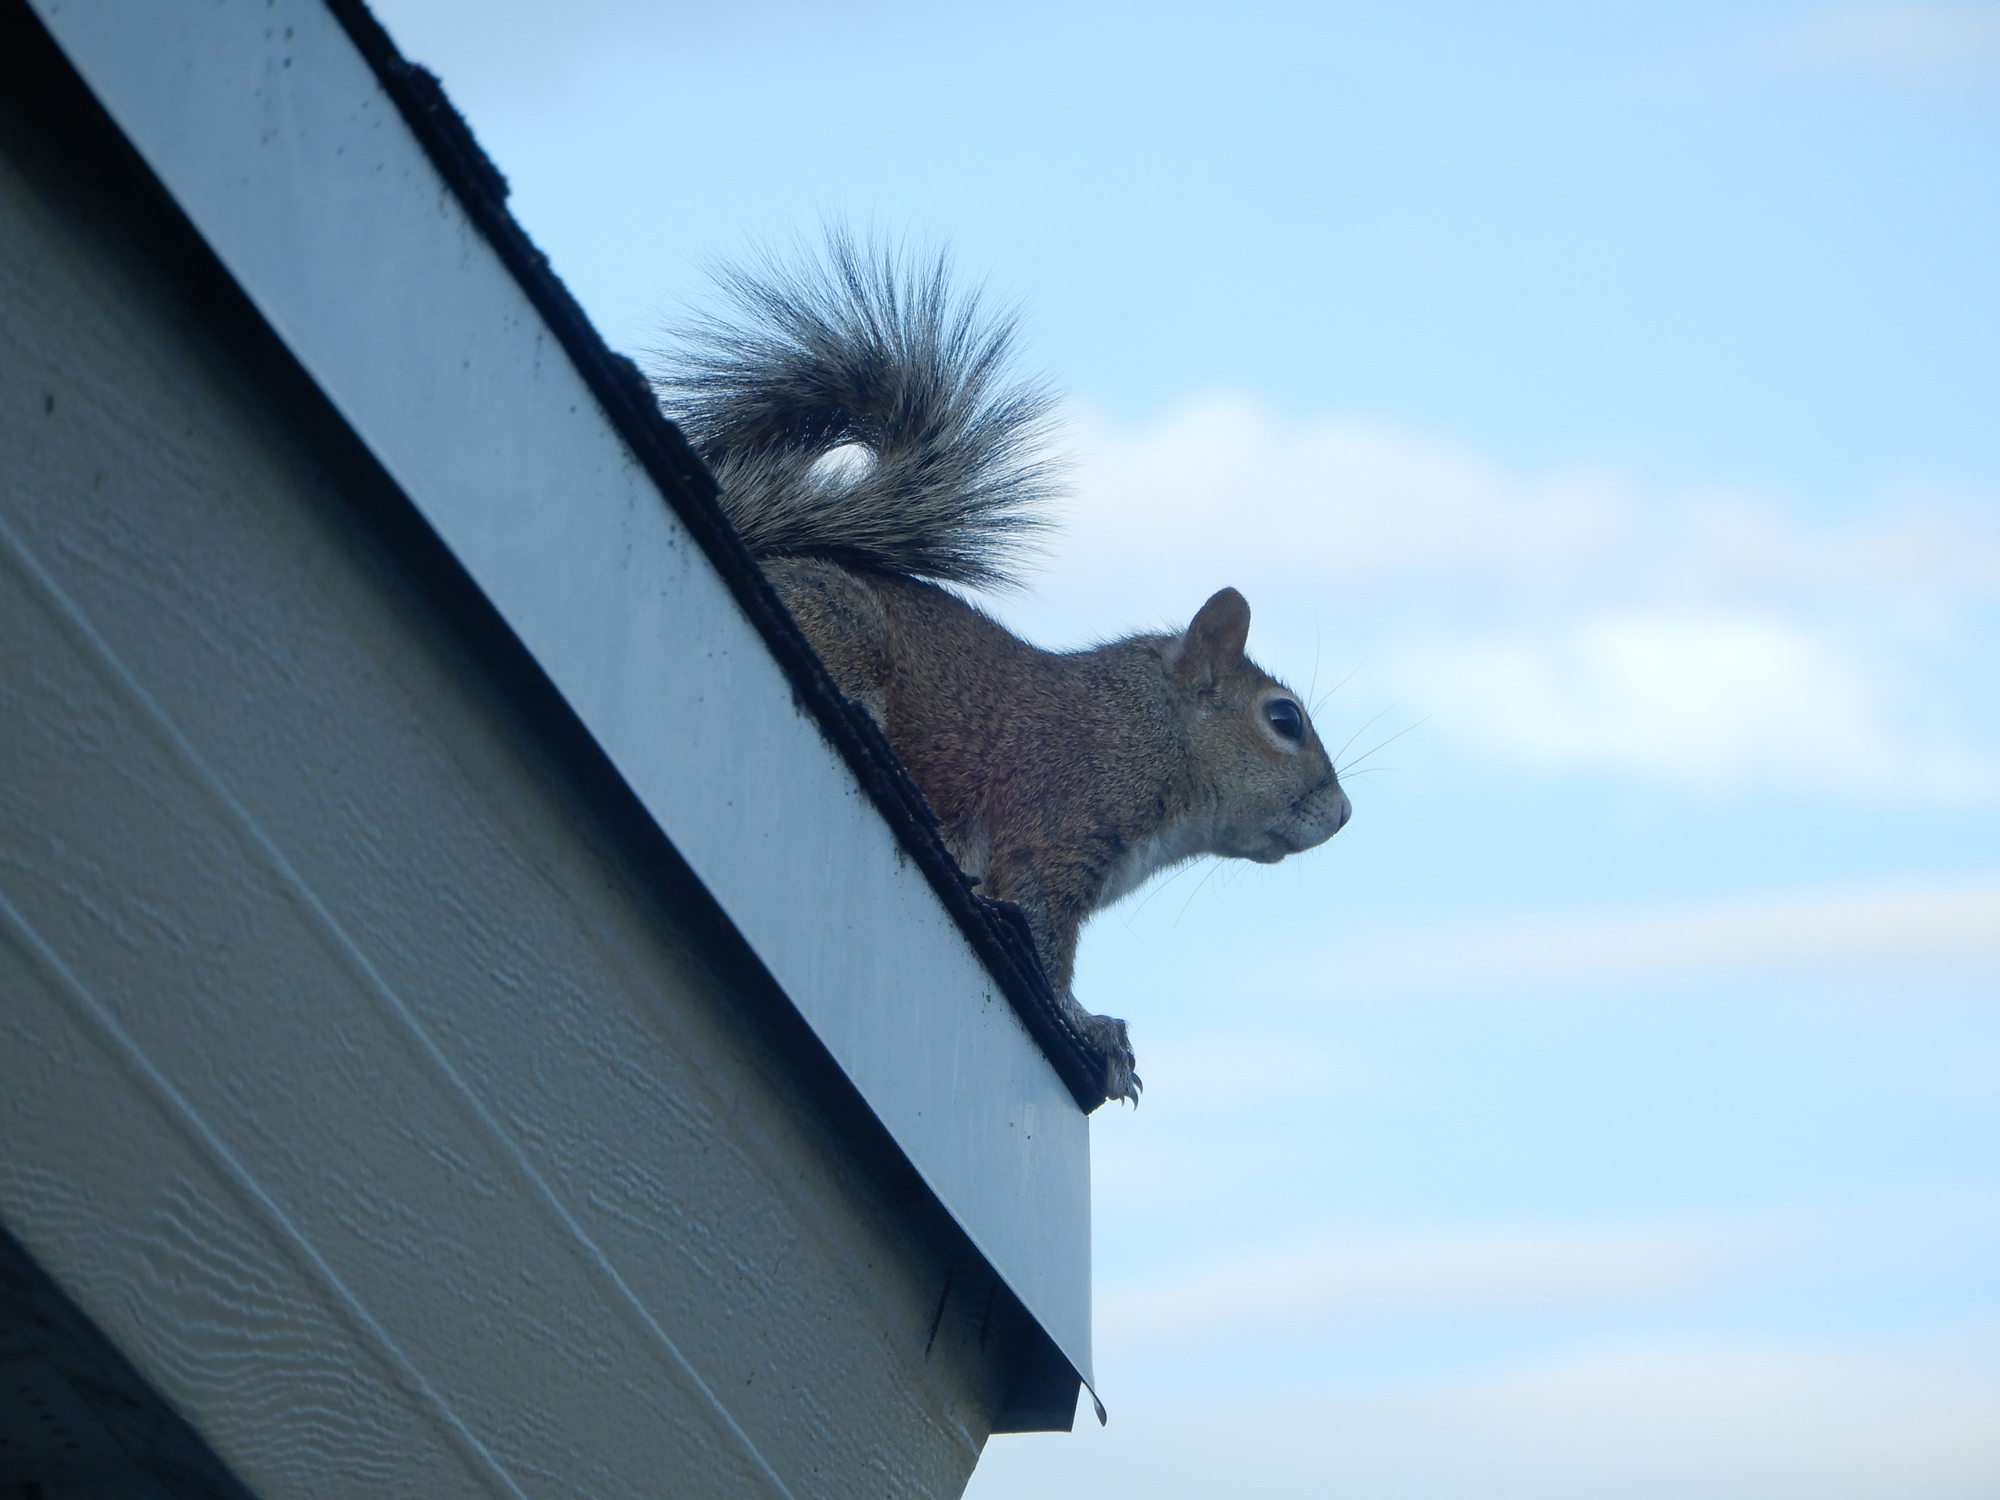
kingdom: Animalia
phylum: Chordata
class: Mammalia
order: Rodentia
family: Sciuridae
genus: Sciurus
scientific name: Sciurus carolinensis
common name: Eastern gray squirrel
